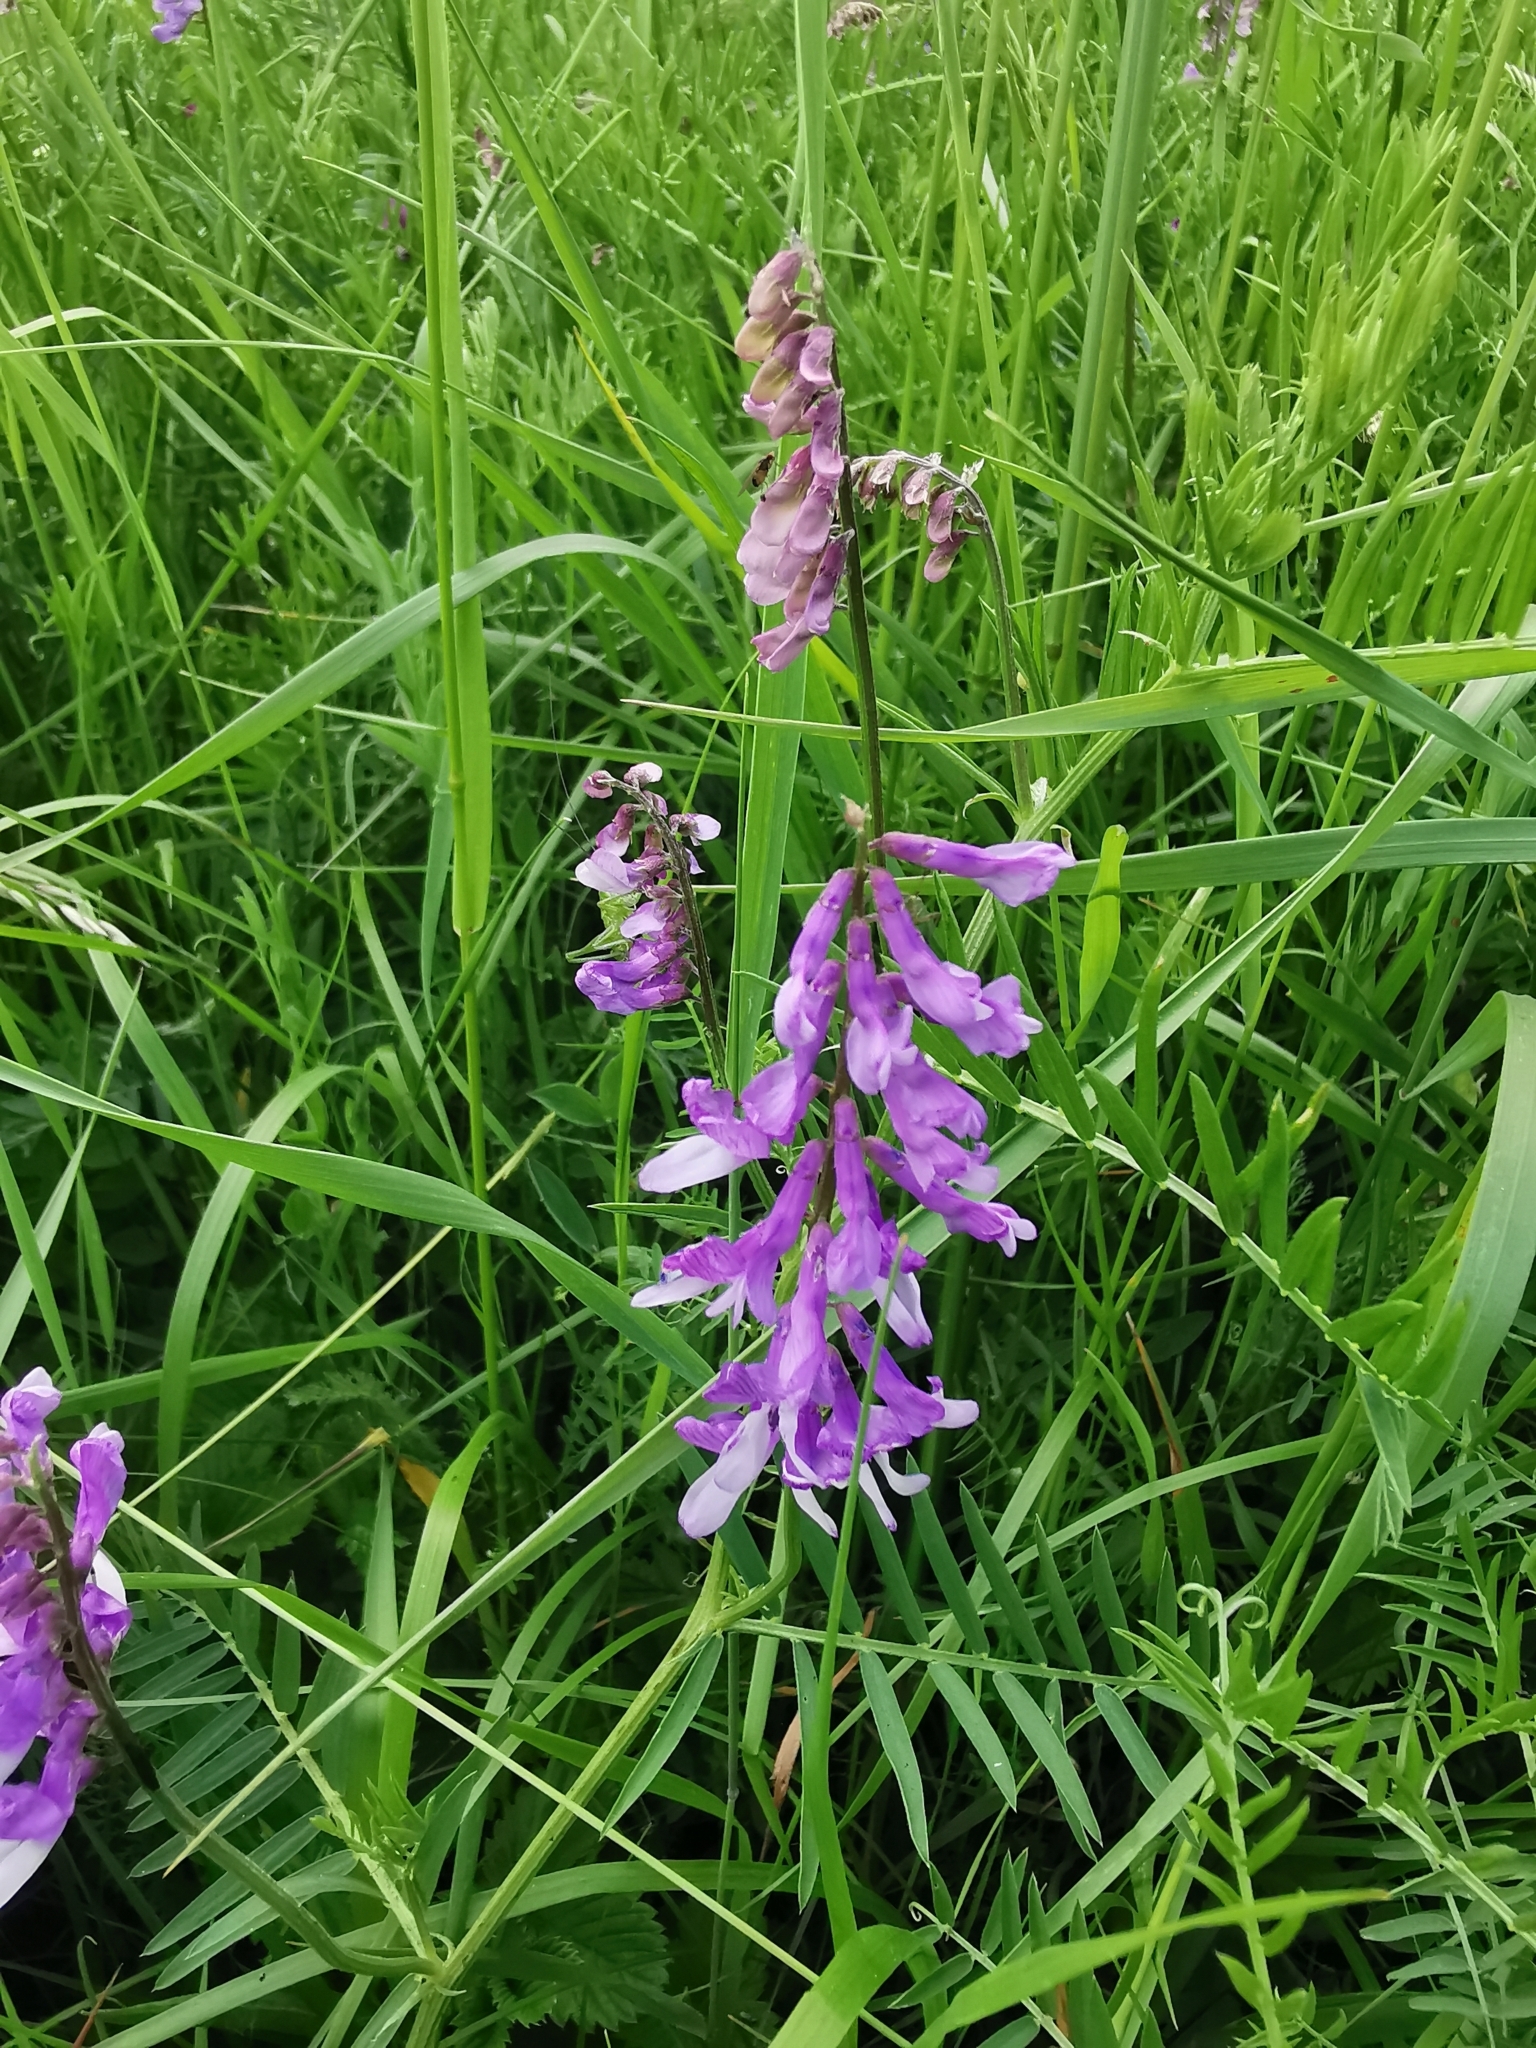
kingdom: Plantae
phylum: Tracheophyta
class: Magnoliopsida
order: Fabales
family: Fabaceae
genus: Vicia
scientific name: Vicia tenuifolia
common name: Fine-leaved vetch
